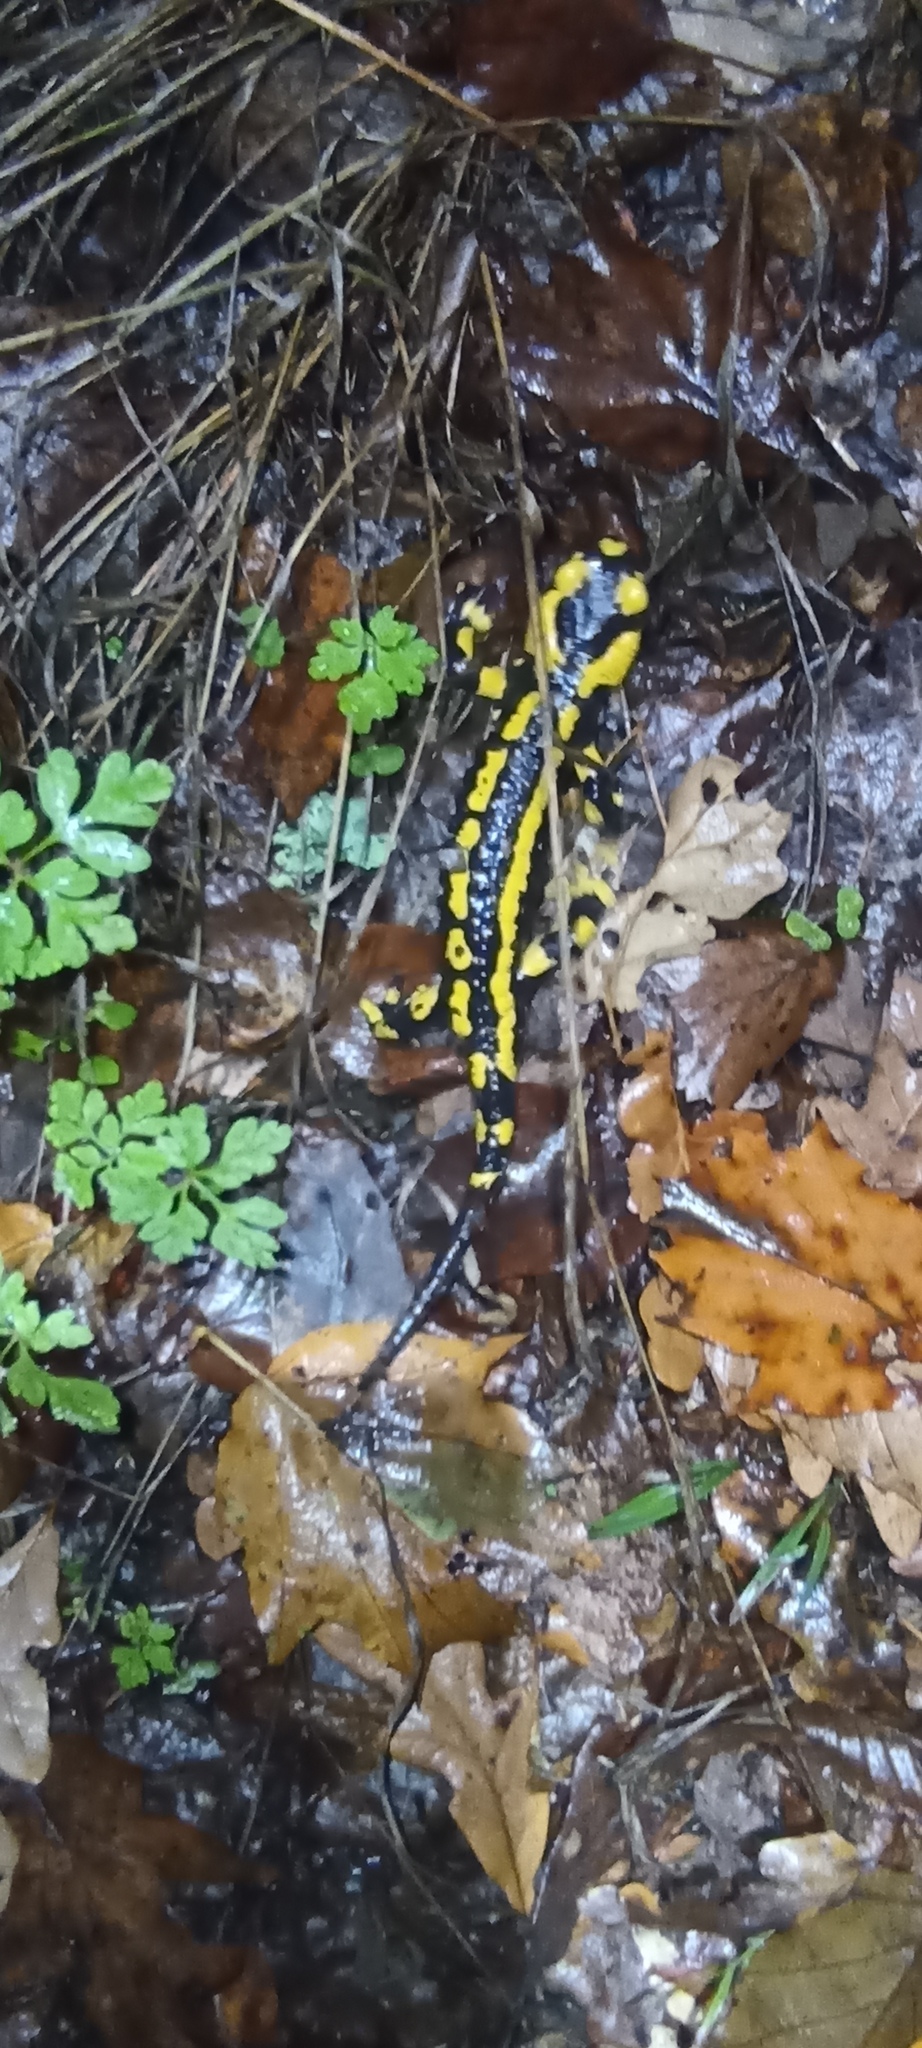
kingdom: Animalia
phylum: Chordata
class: Amphibia
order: Caudata
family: Salamandridae
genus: Salamandra
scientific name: Salamandra salamandra
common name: Fire salamander
